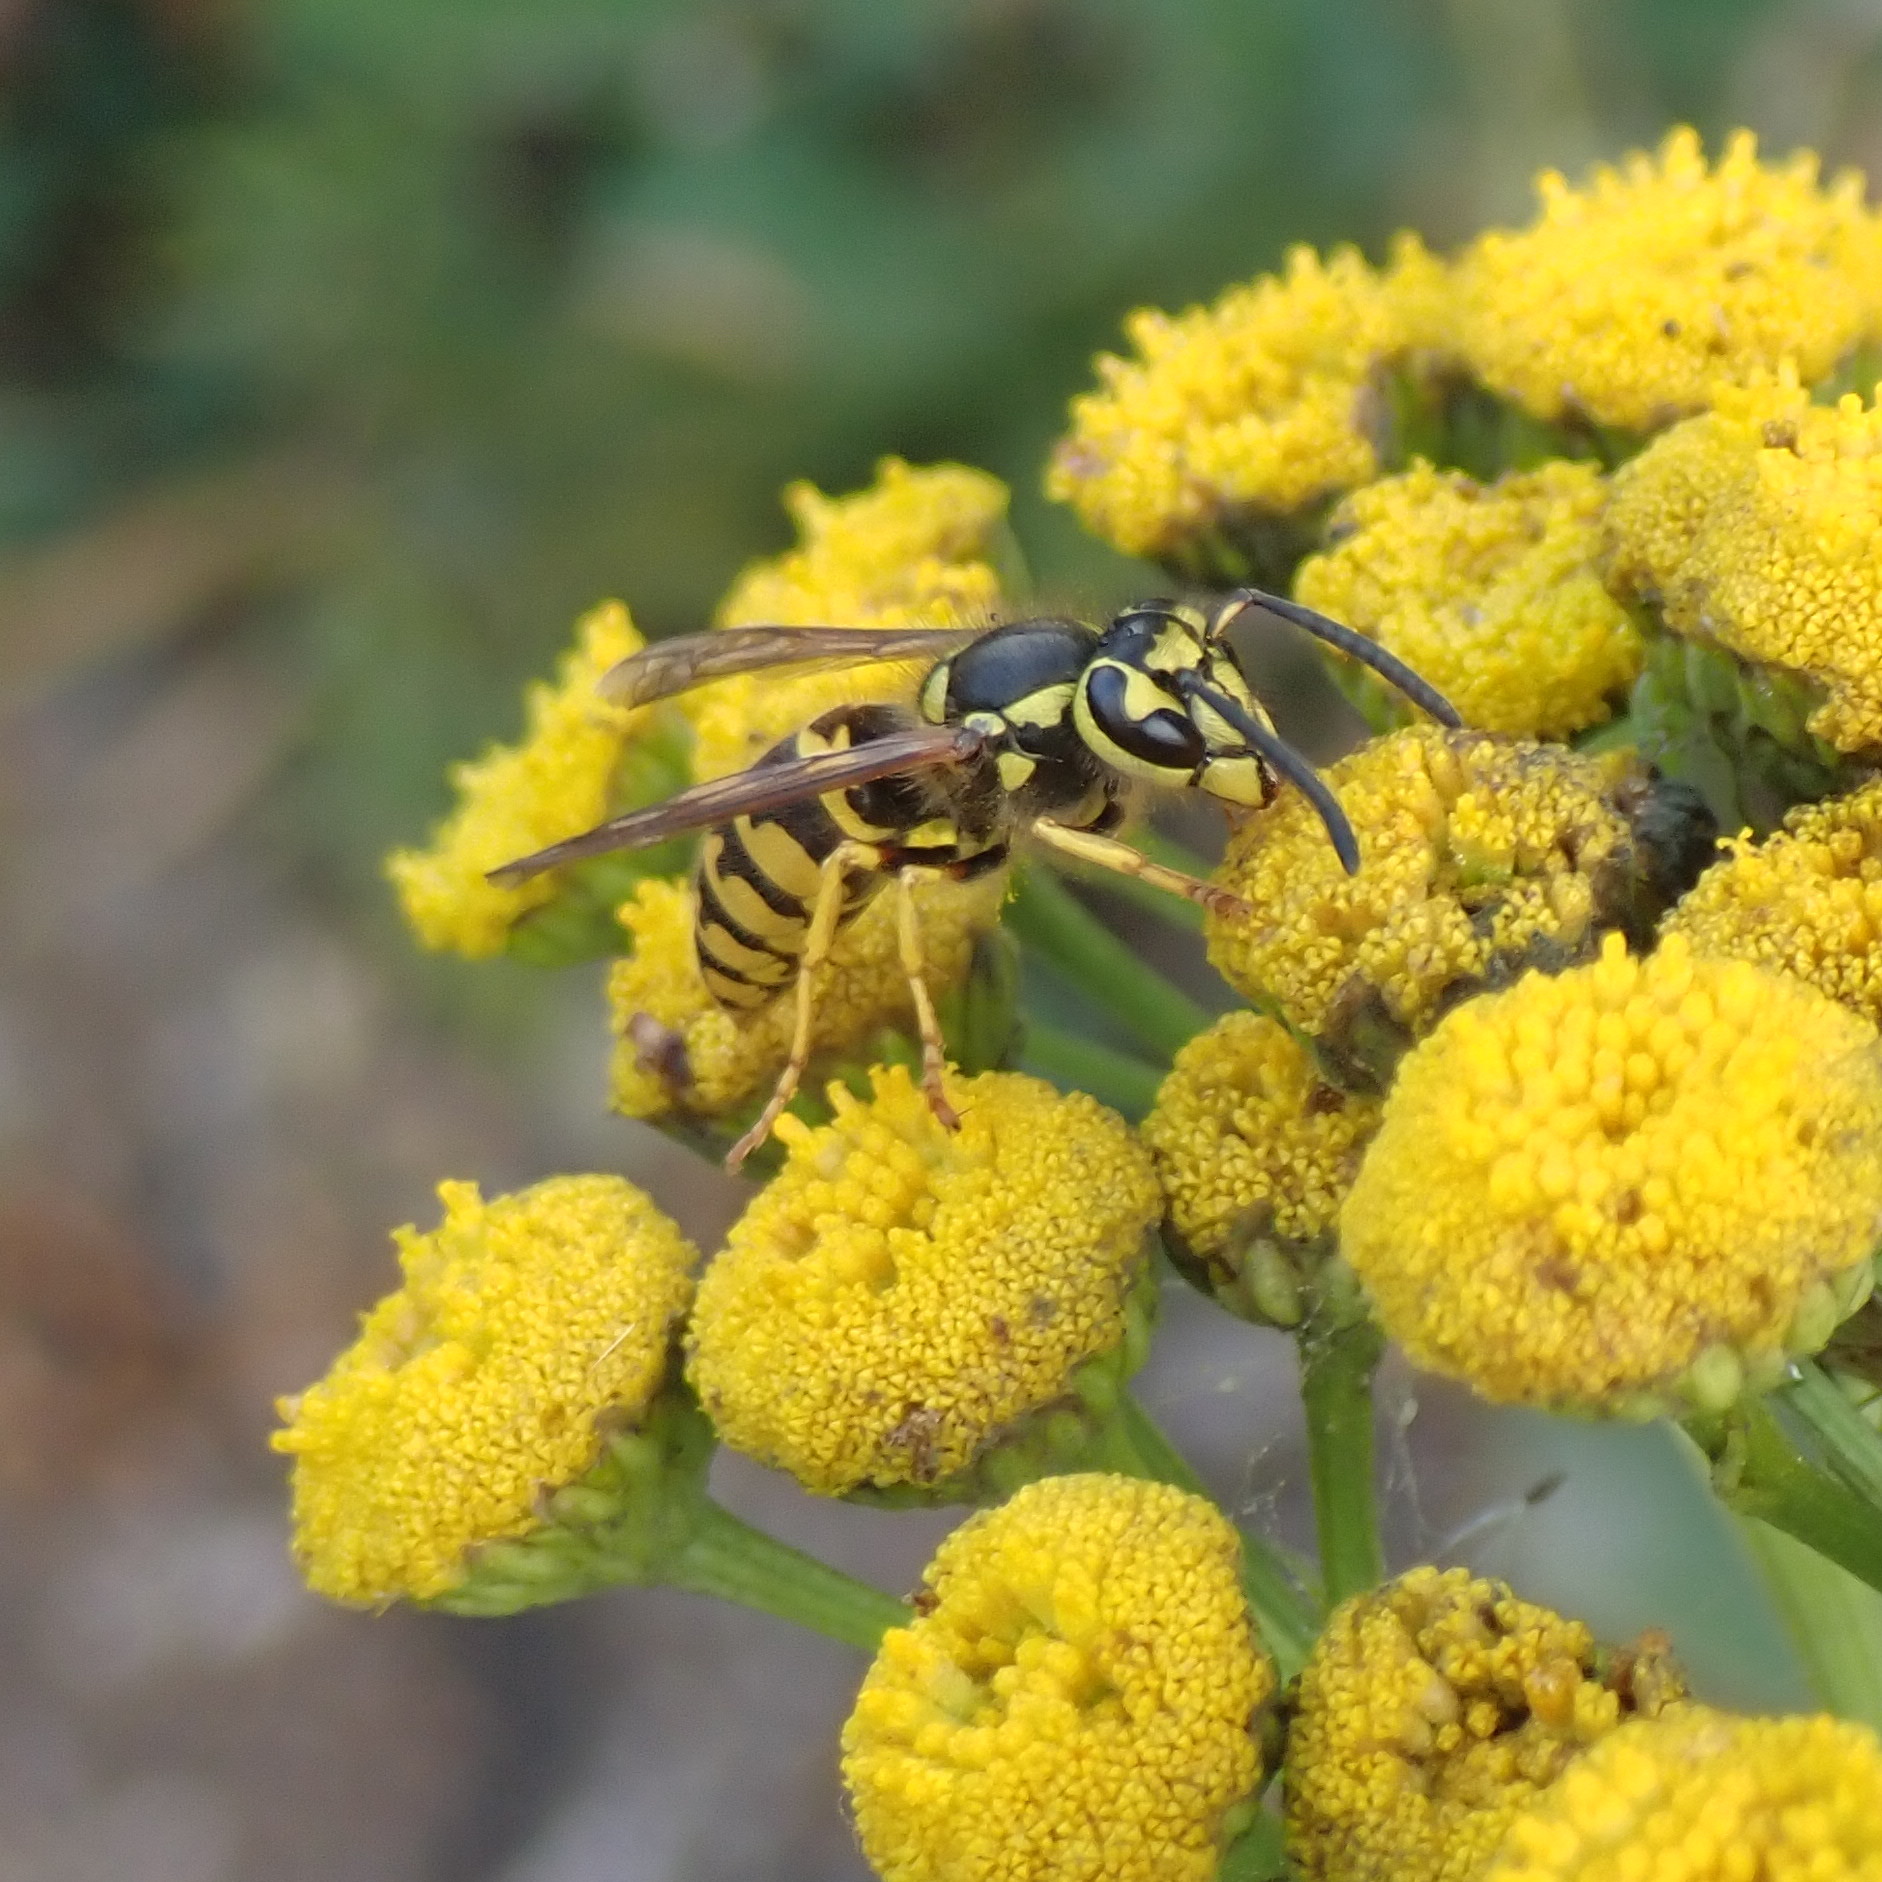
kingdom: Animalia
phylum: Arthropoda
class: Insecta
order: Hymenoptera
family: Vespidae
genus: Vespula
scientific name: Vespula pensylvanica
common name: Western yellowjacket
